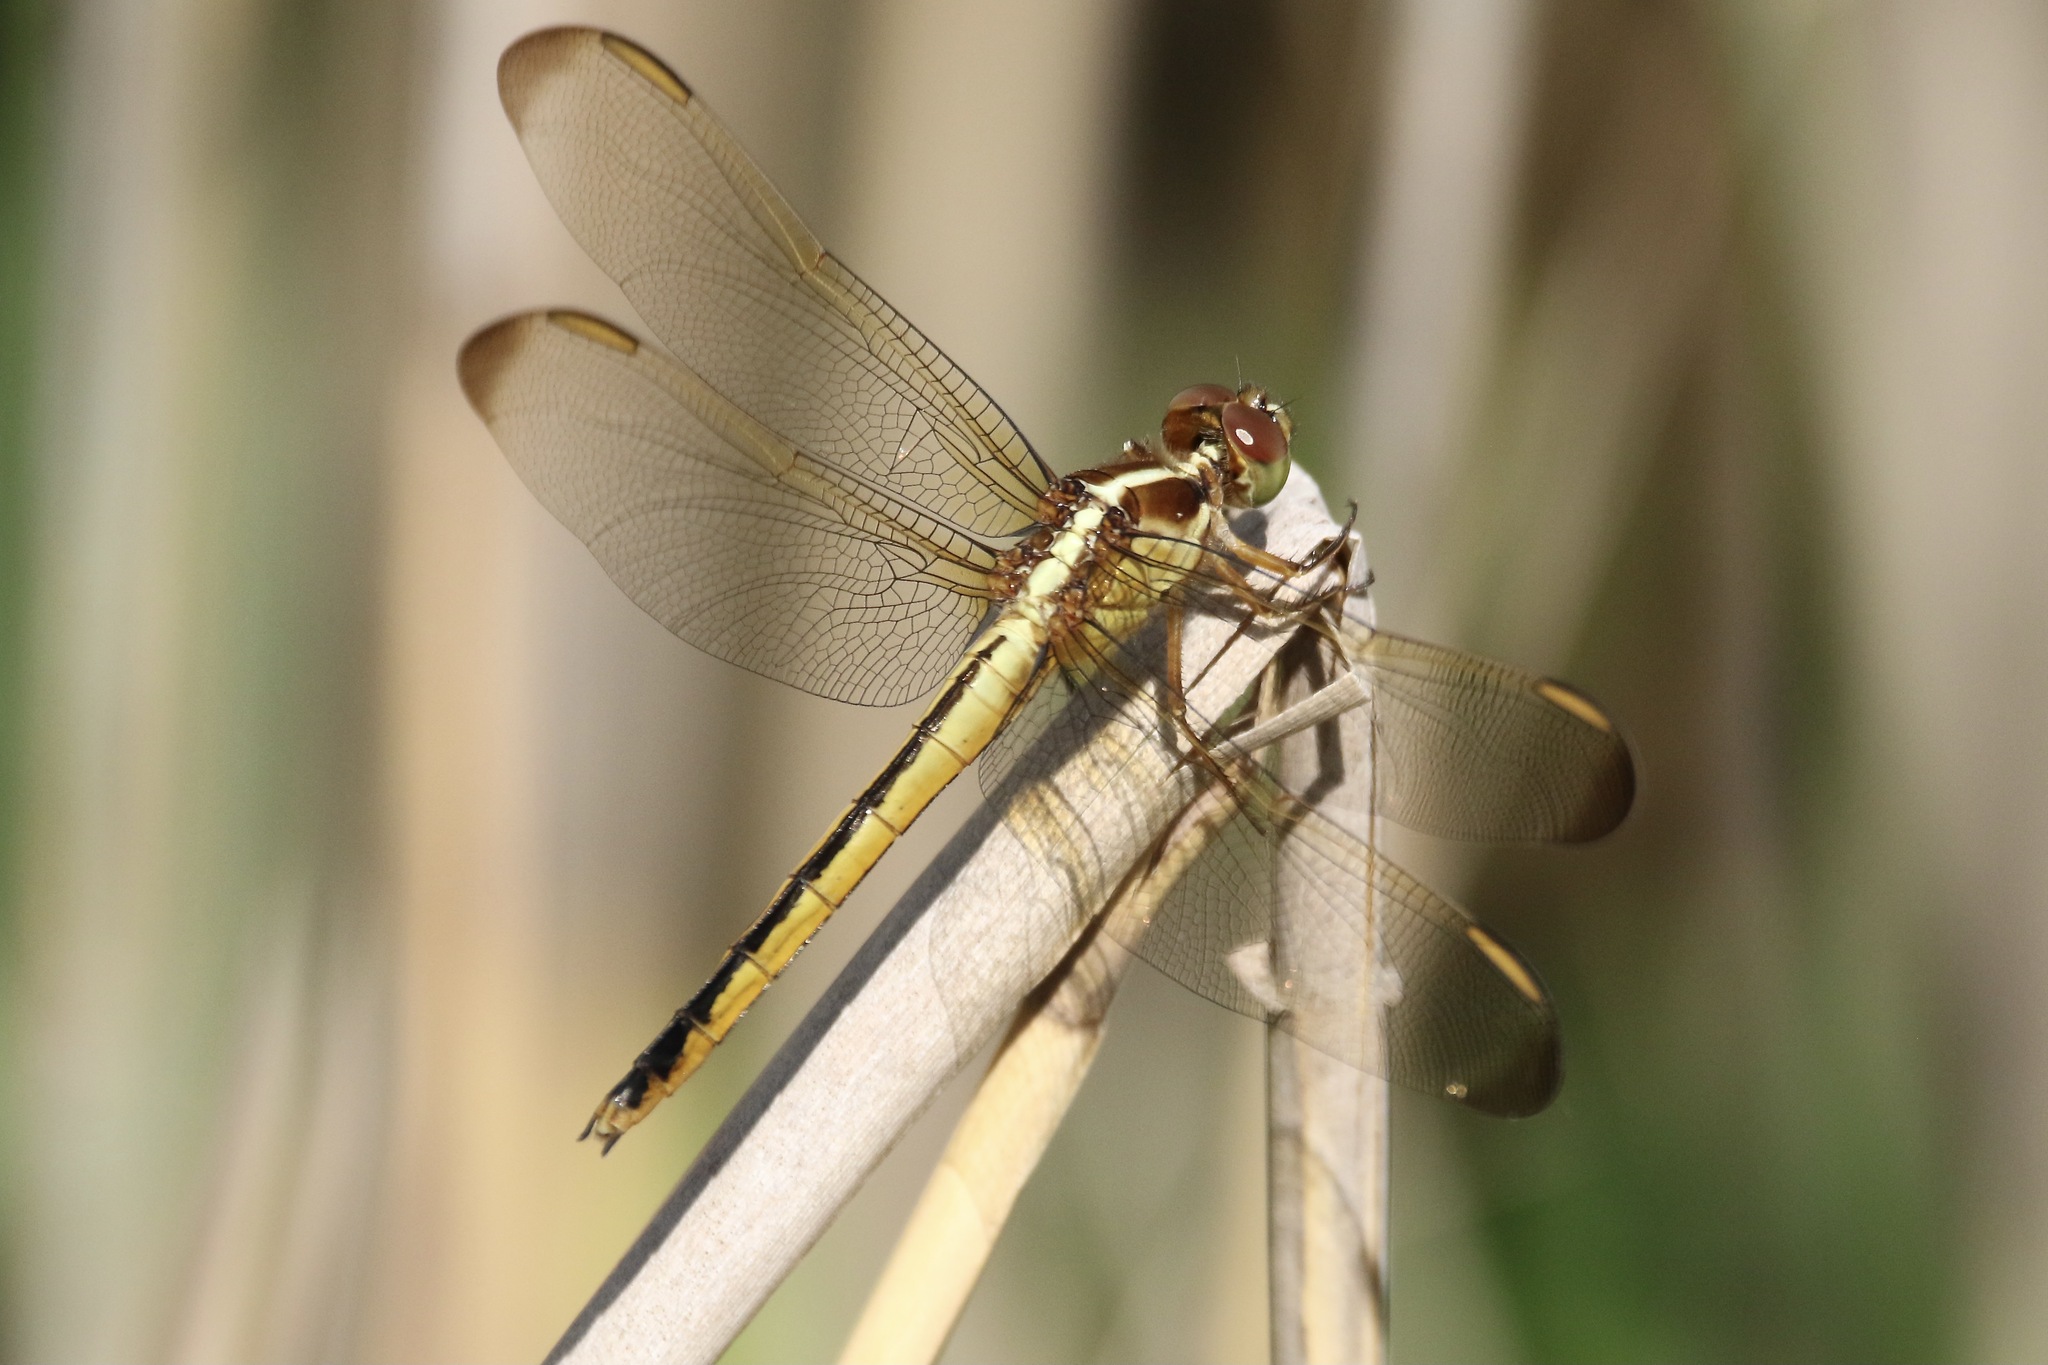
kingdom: Animalia
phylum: Arthropoda
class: Insecta
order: Odonata
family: Libellulidae
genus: Libellula
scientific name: Libellula needhami
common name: Needham's skimmer
